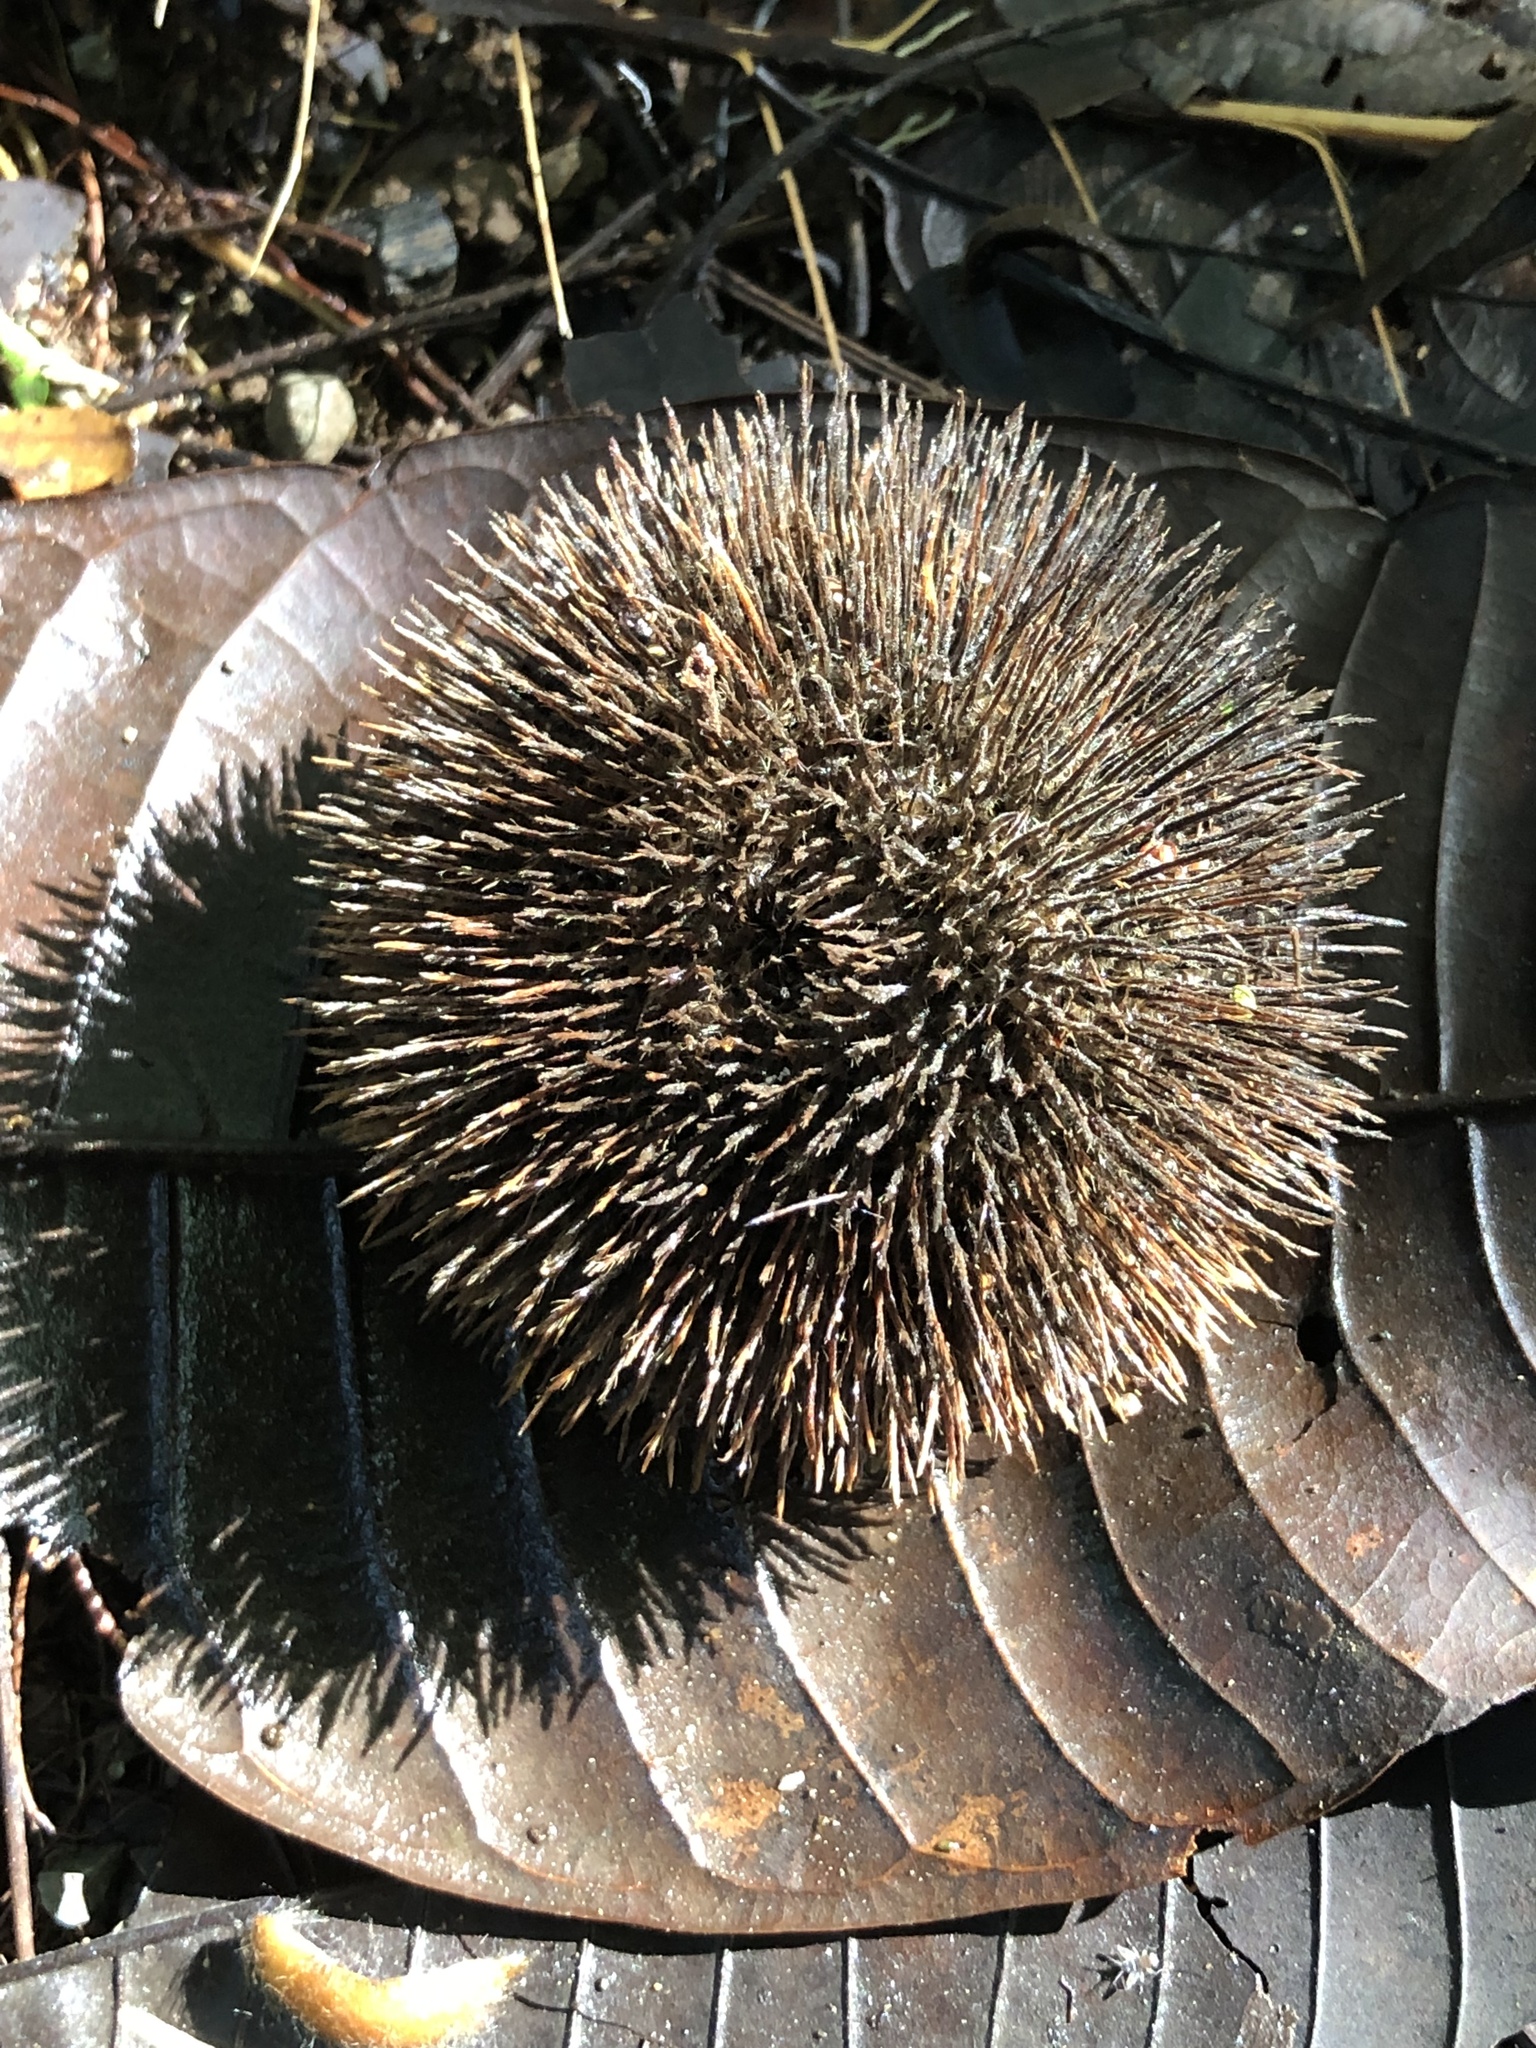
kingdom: Plantae
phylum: Tracheophyta
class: Magnoliopsida
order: Malvales
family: Malvaceae
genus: Apeiba
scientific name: Apeiba tibourbou
